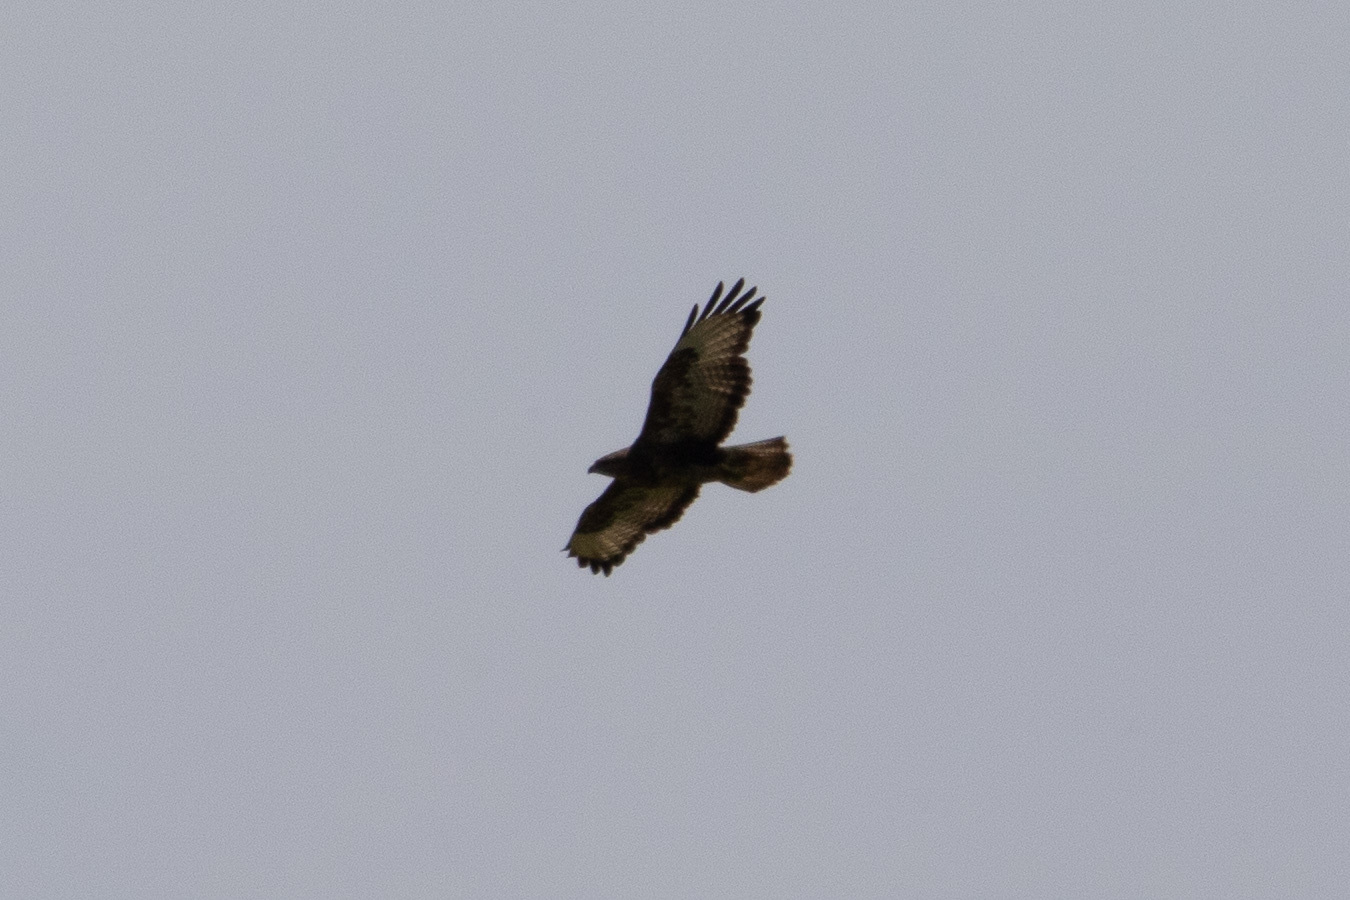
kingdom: Animalia
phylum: Chordata
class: Aves
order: Accipitriformes
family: Accipitridae
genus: Buteo
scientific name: Buteo buteo
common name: Common buzzard
